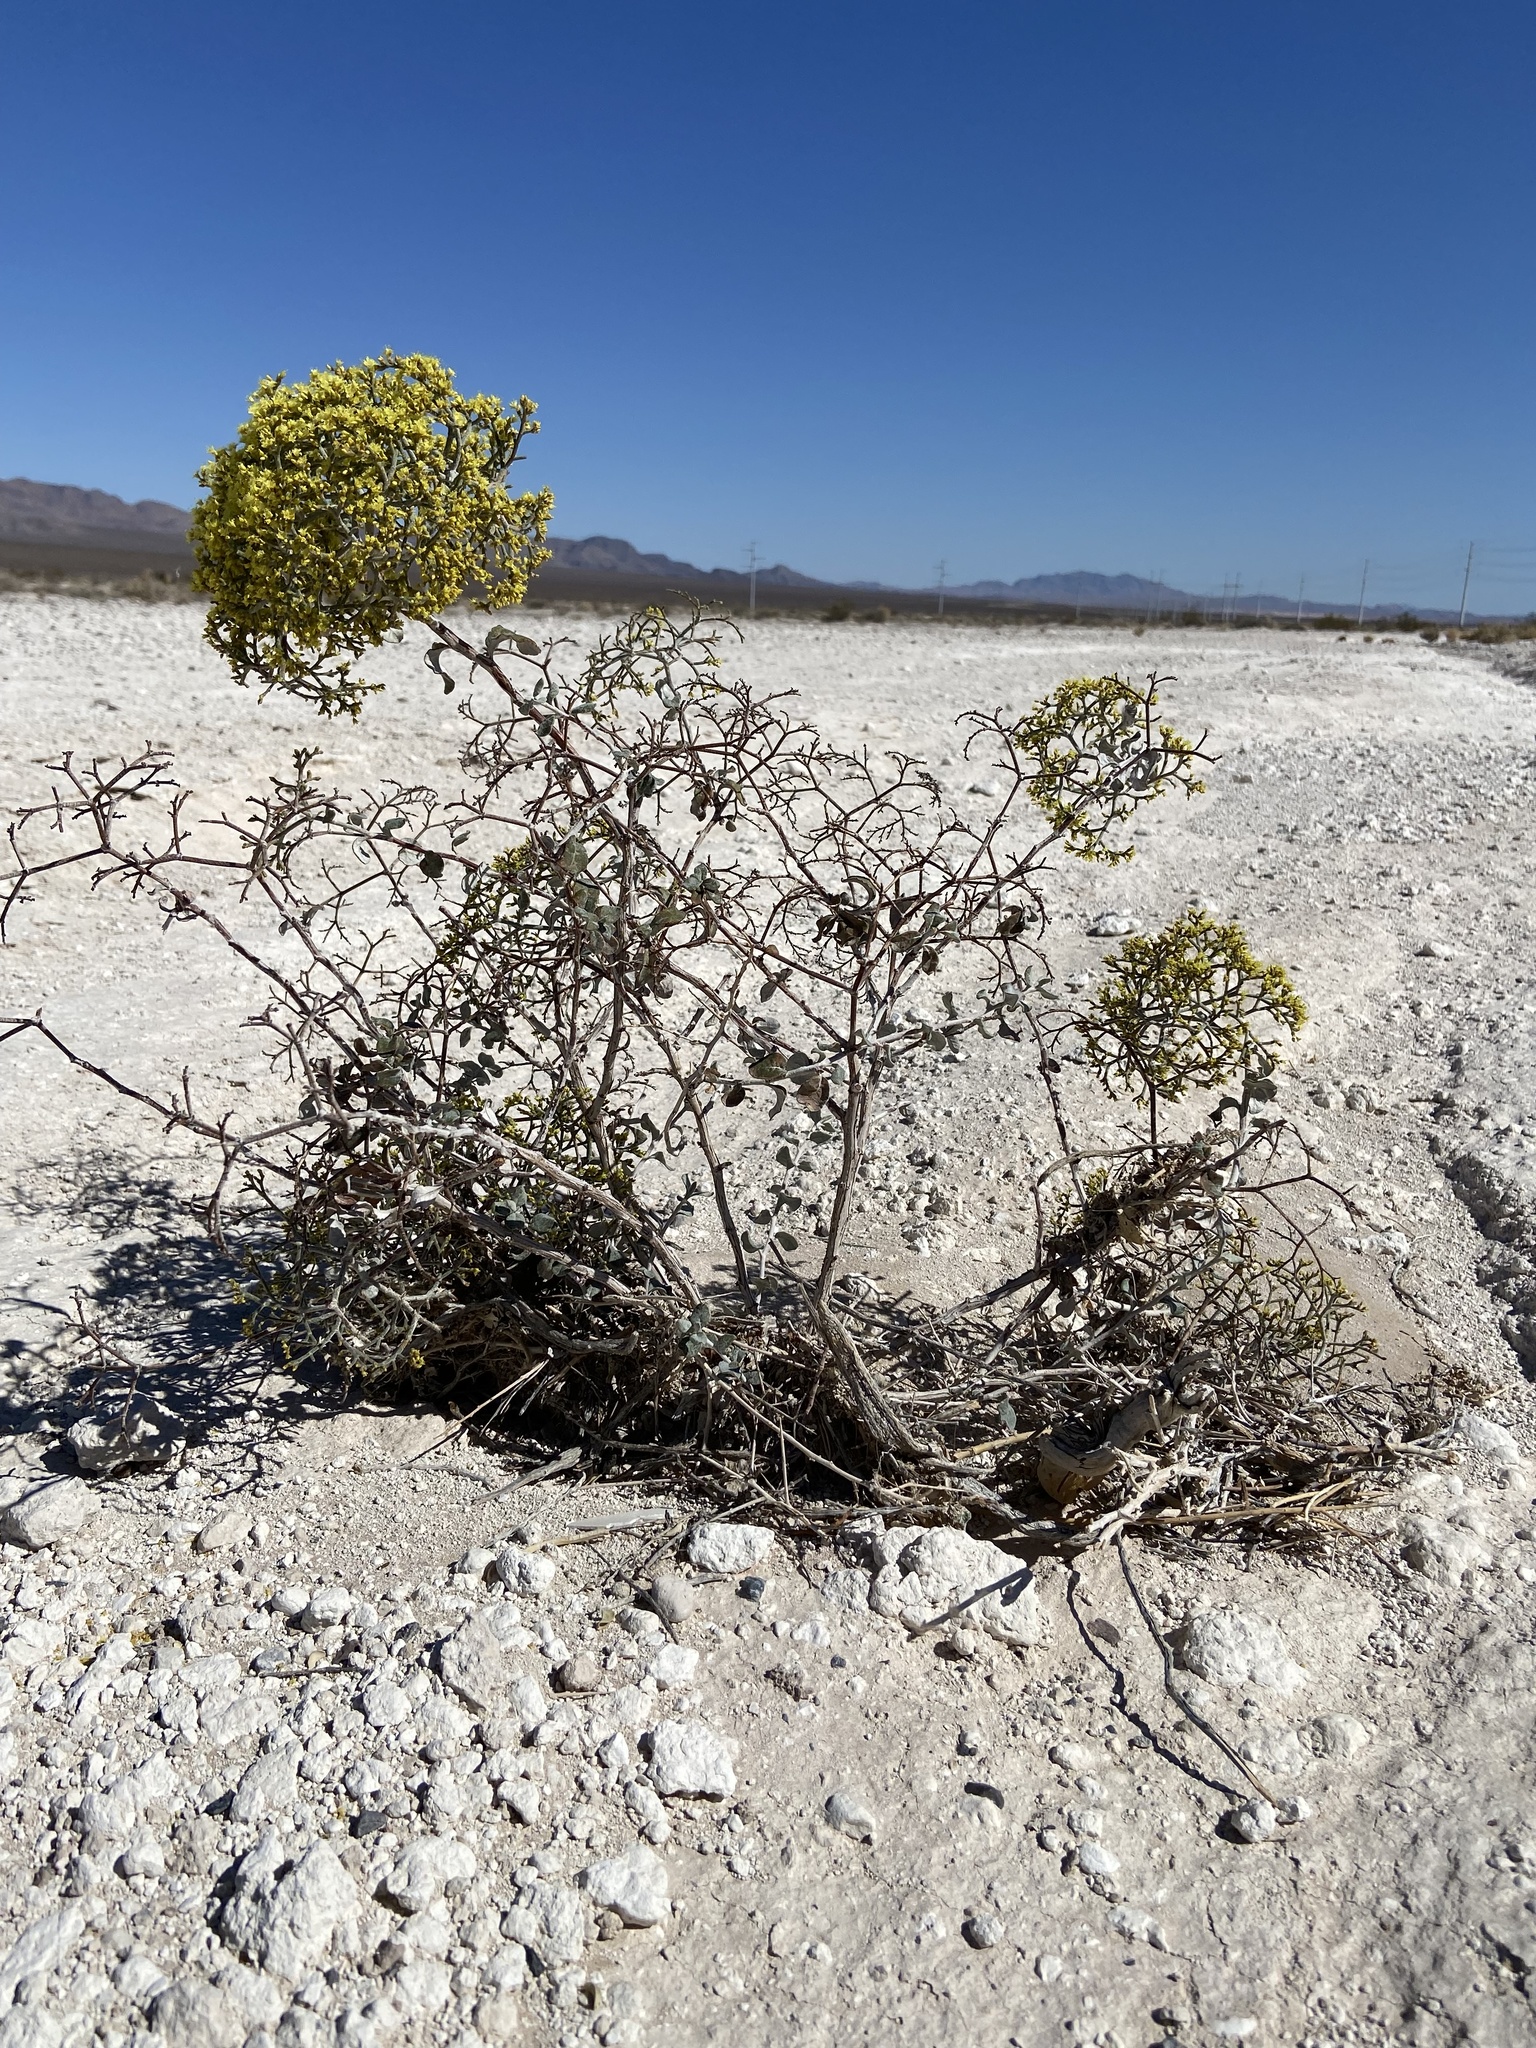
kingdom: Plantae
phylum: Tracheophyta
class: Magnoliopsida
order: Caryophyllales
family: Polygonaceae
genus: Eriogonum
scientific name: Eriogonum corymbosum
